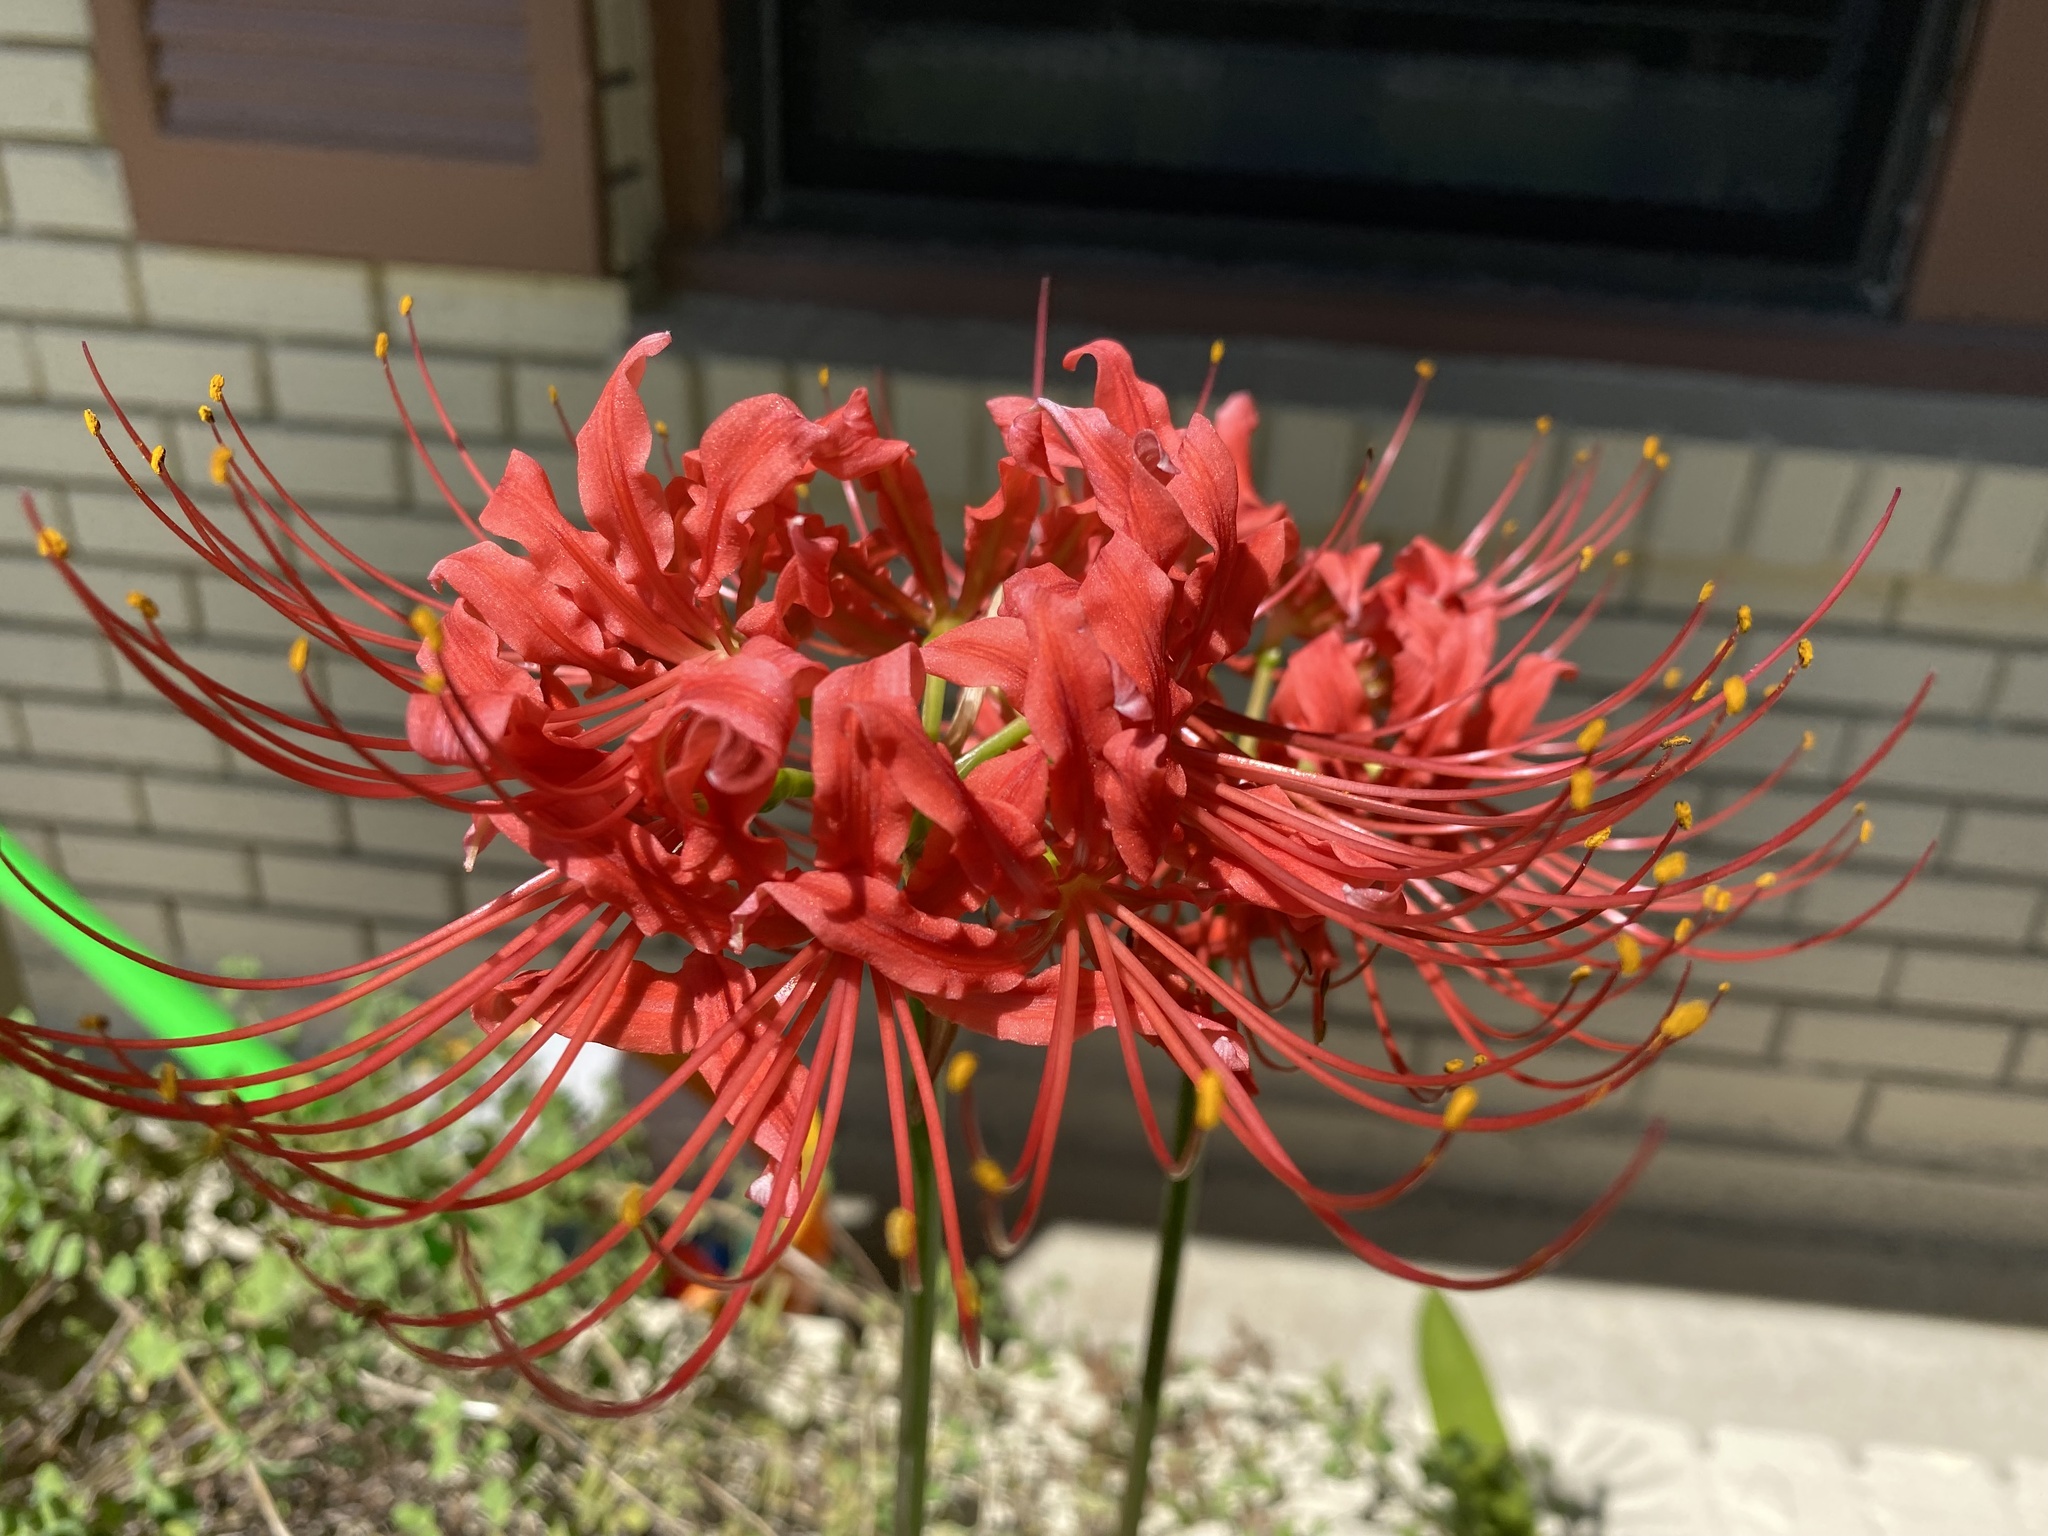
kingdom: Plantae
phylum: Tracheophyta
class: Liliopsida
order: Asparagales
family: Amaryllidaceae
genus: Lycoris
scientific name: Lycoris radiata
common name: Red spider lily
